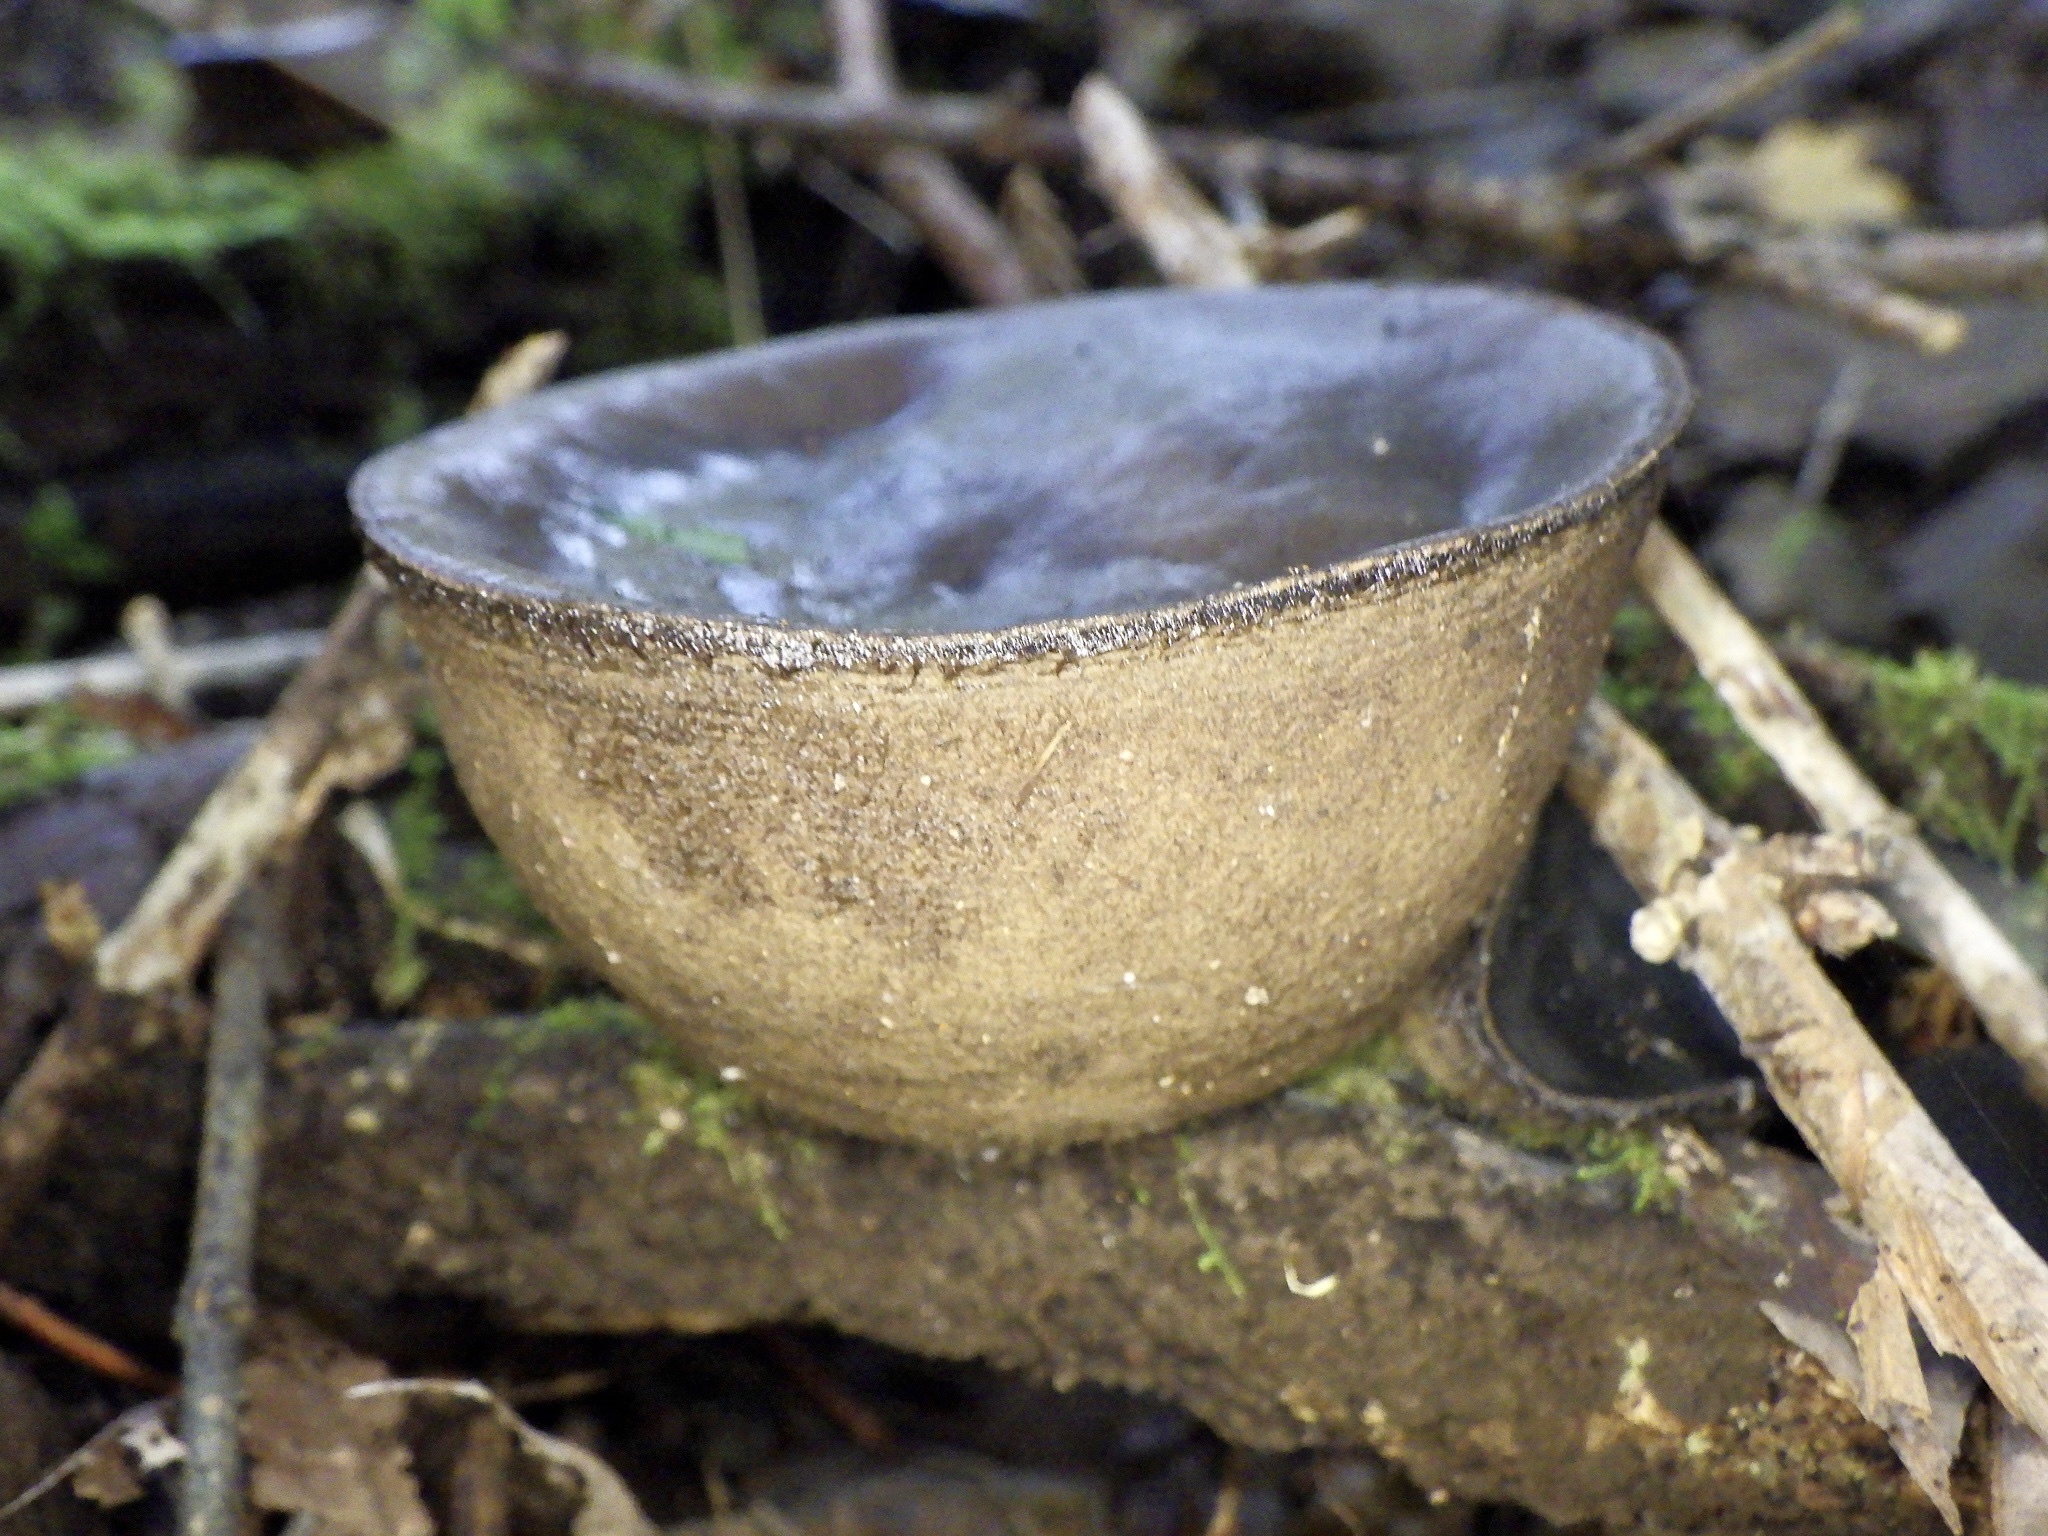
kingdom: Fungi
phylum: Ascomycota
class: Pezizomycetes
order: Pezizales
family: Pyronemataceae
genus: Trichaleurina
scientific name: Trichaleurina tenuispora
